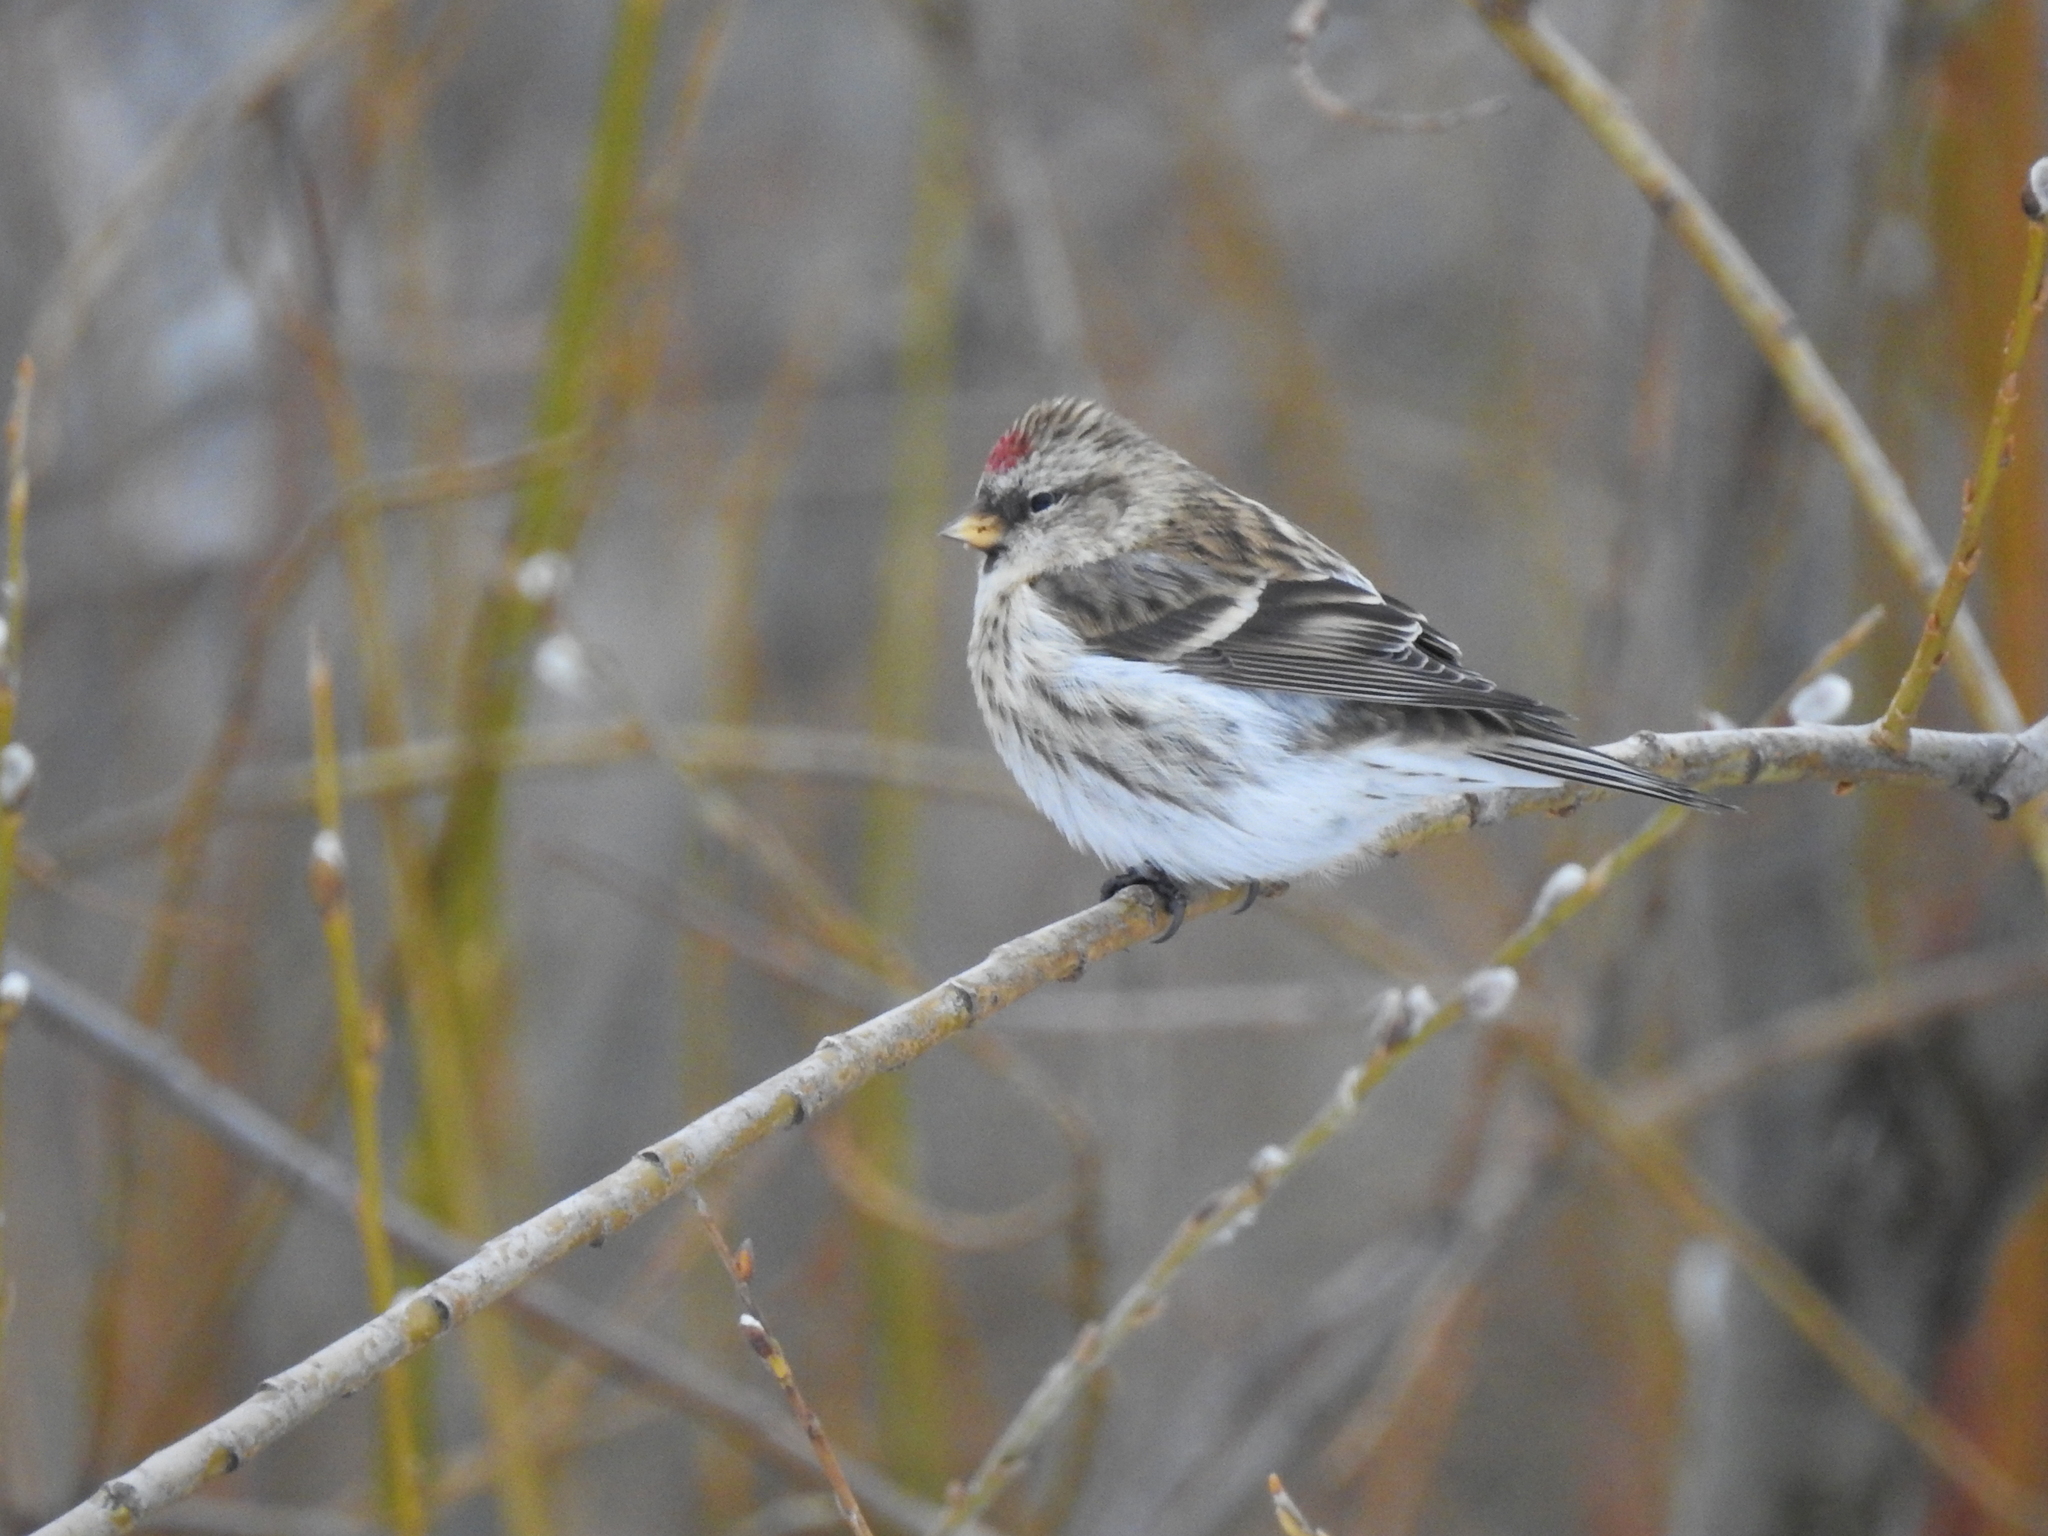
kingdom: Animalia
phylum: Chordata
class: Aves
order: Passeriformes
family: Fringillidae
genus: Acanthis
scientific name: Acanthis flammea
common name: Common redpoll
